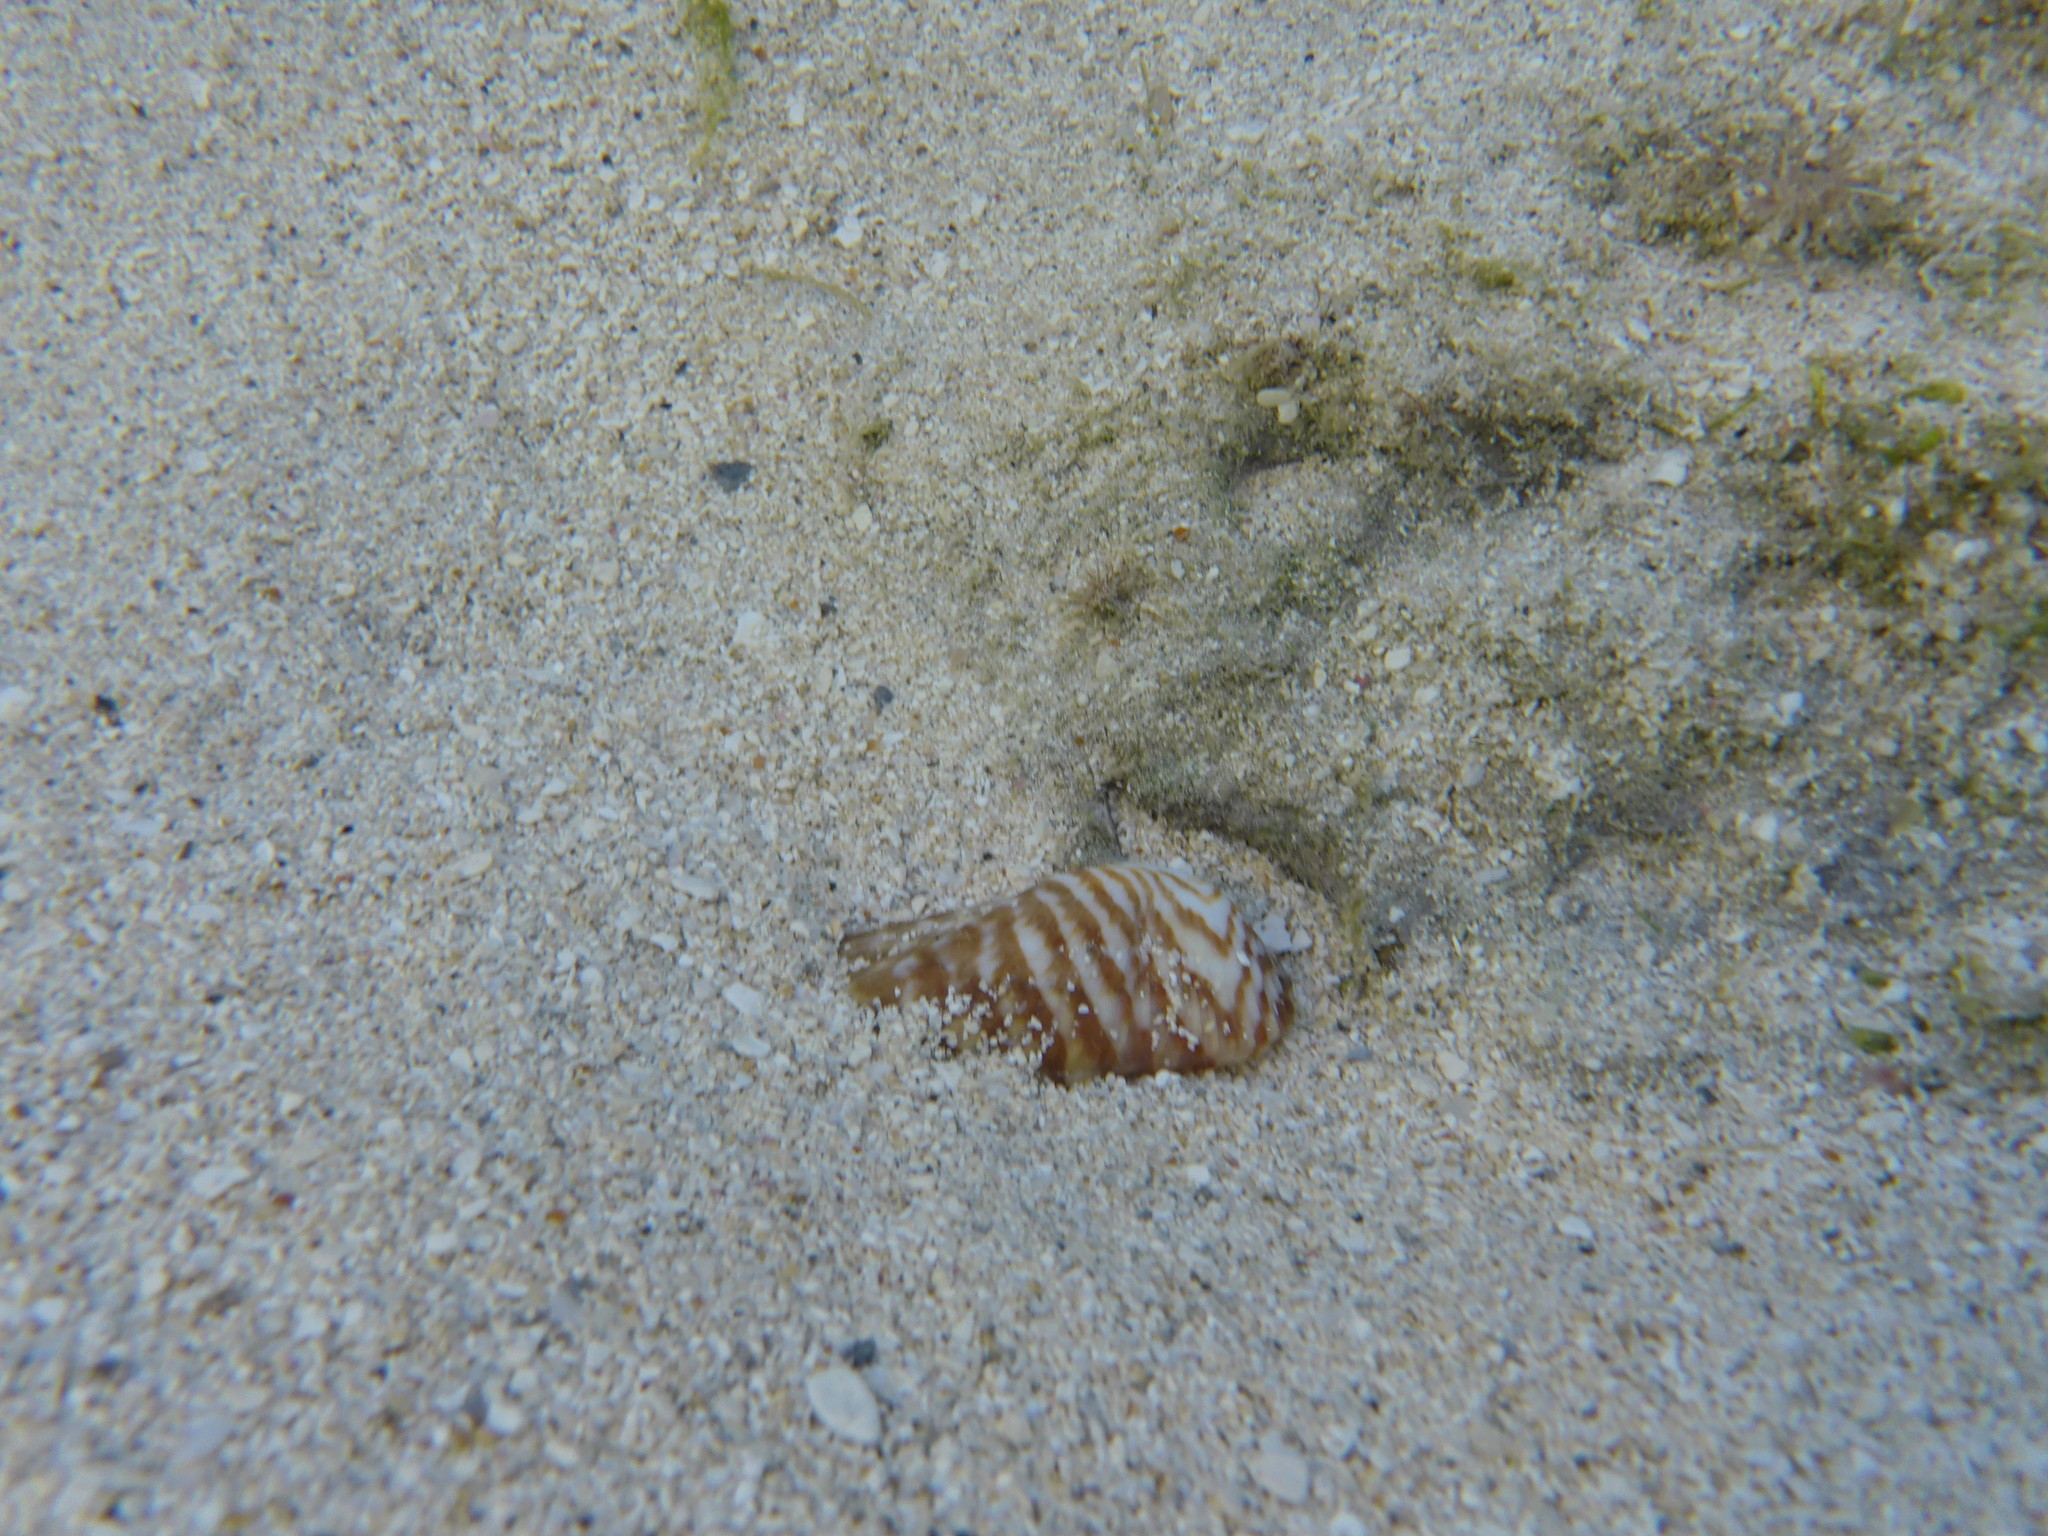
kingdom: Animalia
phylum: Mollusca
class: Bivalvia
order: Arcida
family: Arcidae
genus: Arca
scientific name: Arca zebra
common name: Atlantic turkey wing
